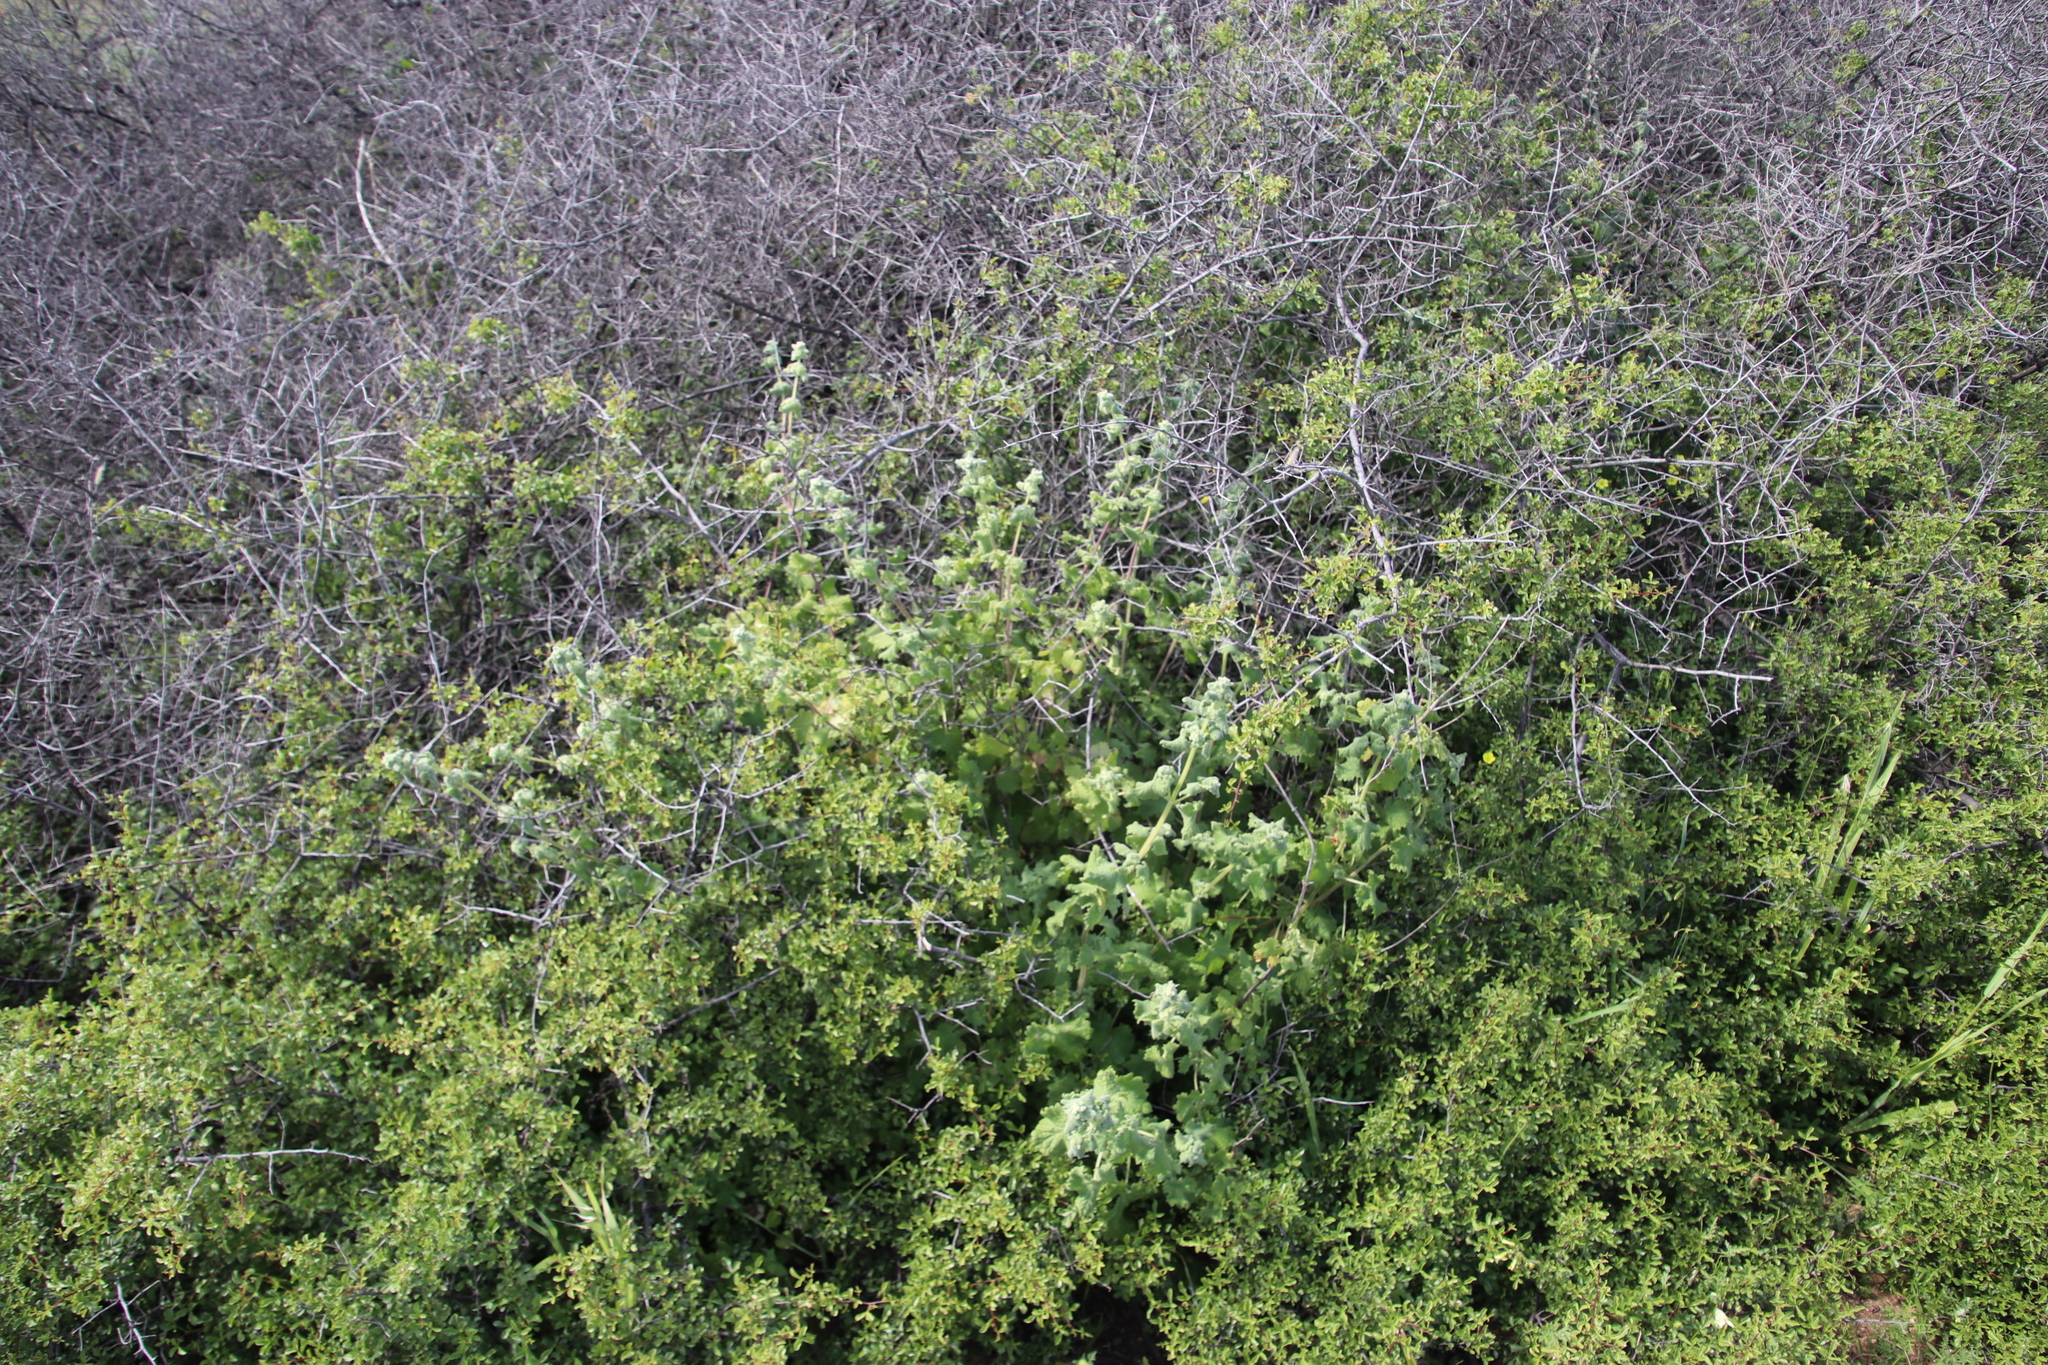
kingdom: Plantae
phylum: Tracheophyta
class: Magnoliopsida
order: Lamiales
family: Lamiaceae
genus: Pseudodictamnus
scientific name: Pseudodictamnus africanus
